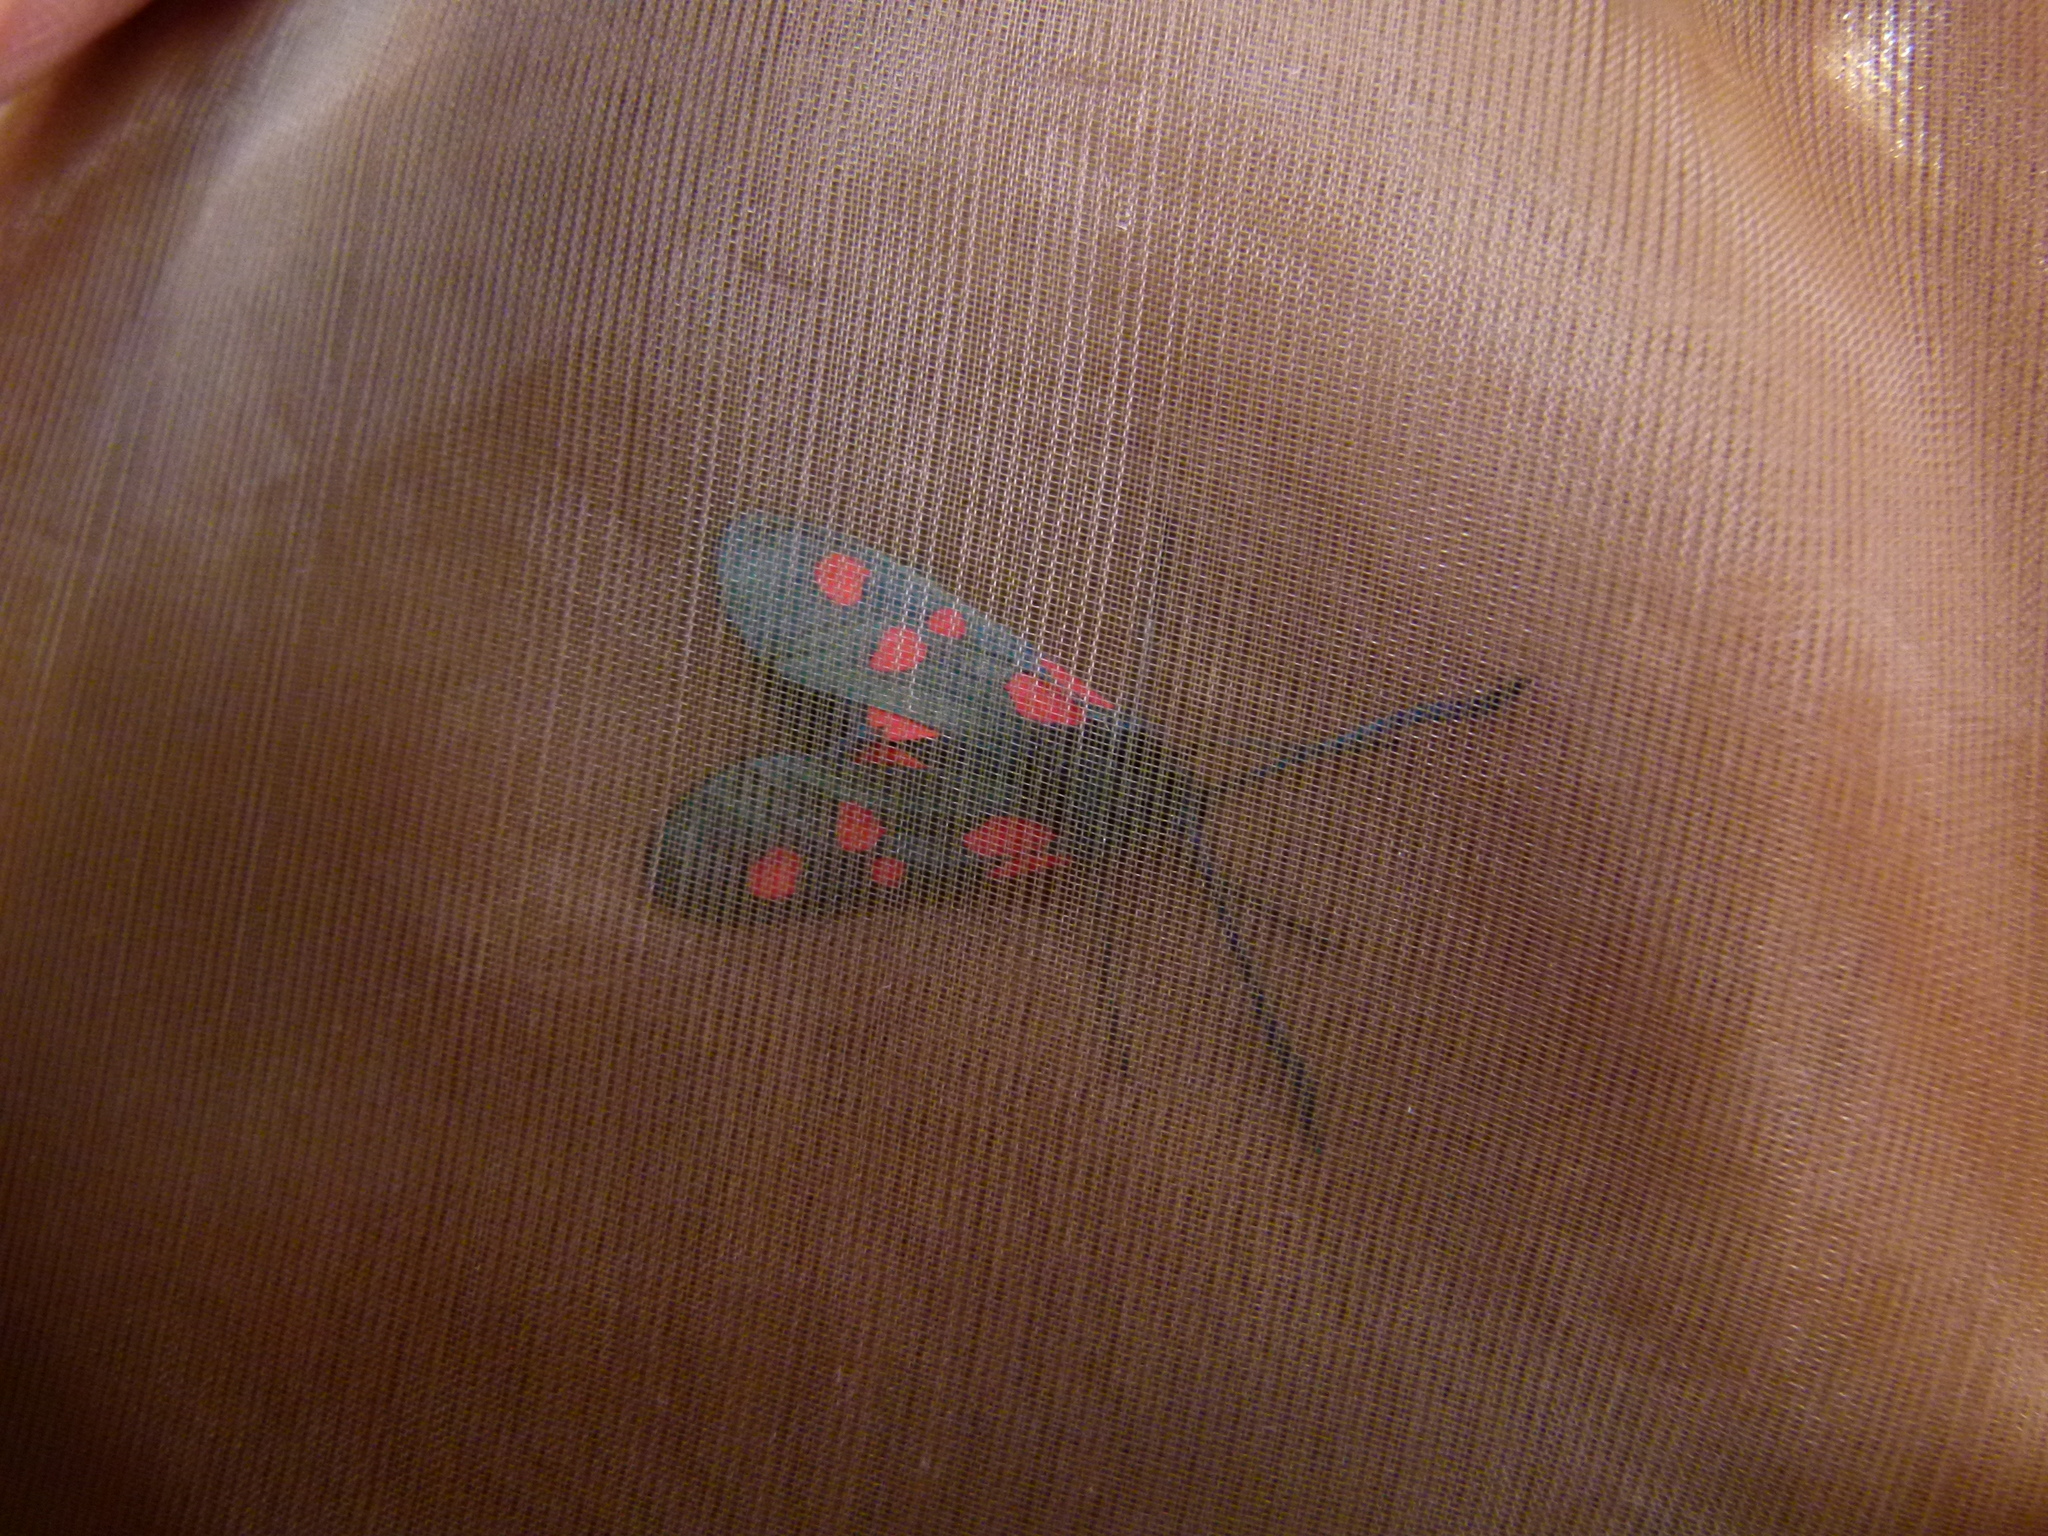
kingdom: Animalia
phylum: Arthropoda
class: Insecta
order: Lepidoptera
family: Zygaenidae
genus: Zygaena
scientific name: Zygaena lonicerae
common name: Narrow-bordered five-spot burnet
